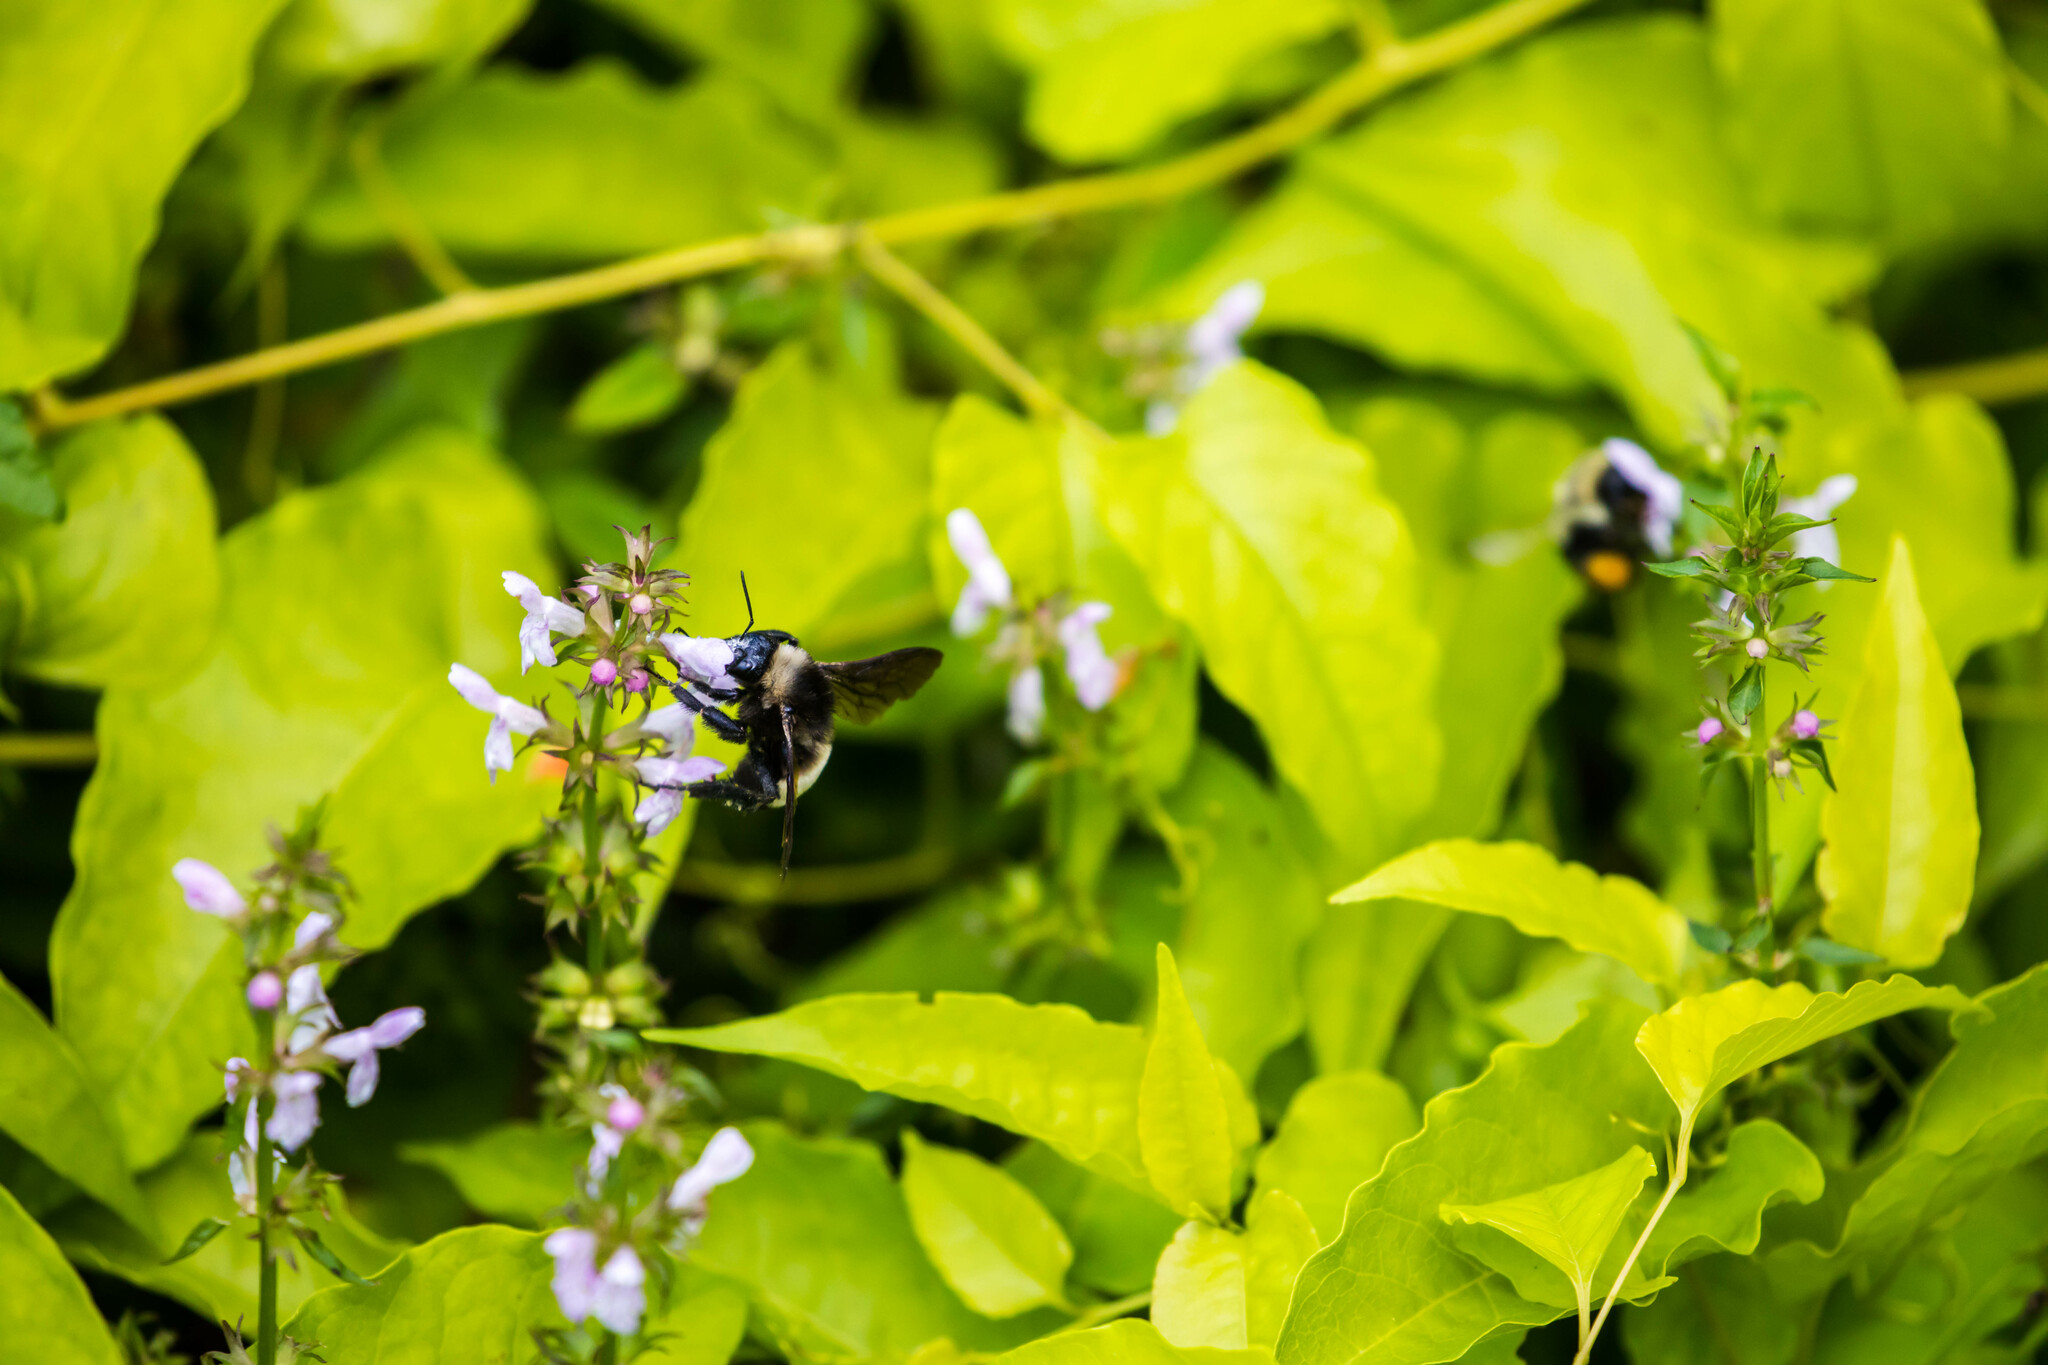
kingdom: Animalia
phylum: Arthropoda
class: Insecta
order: Hymenoptera
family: Apidae
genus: Bombus
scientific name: Bombus pensylvanicus
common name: Bumble bee
